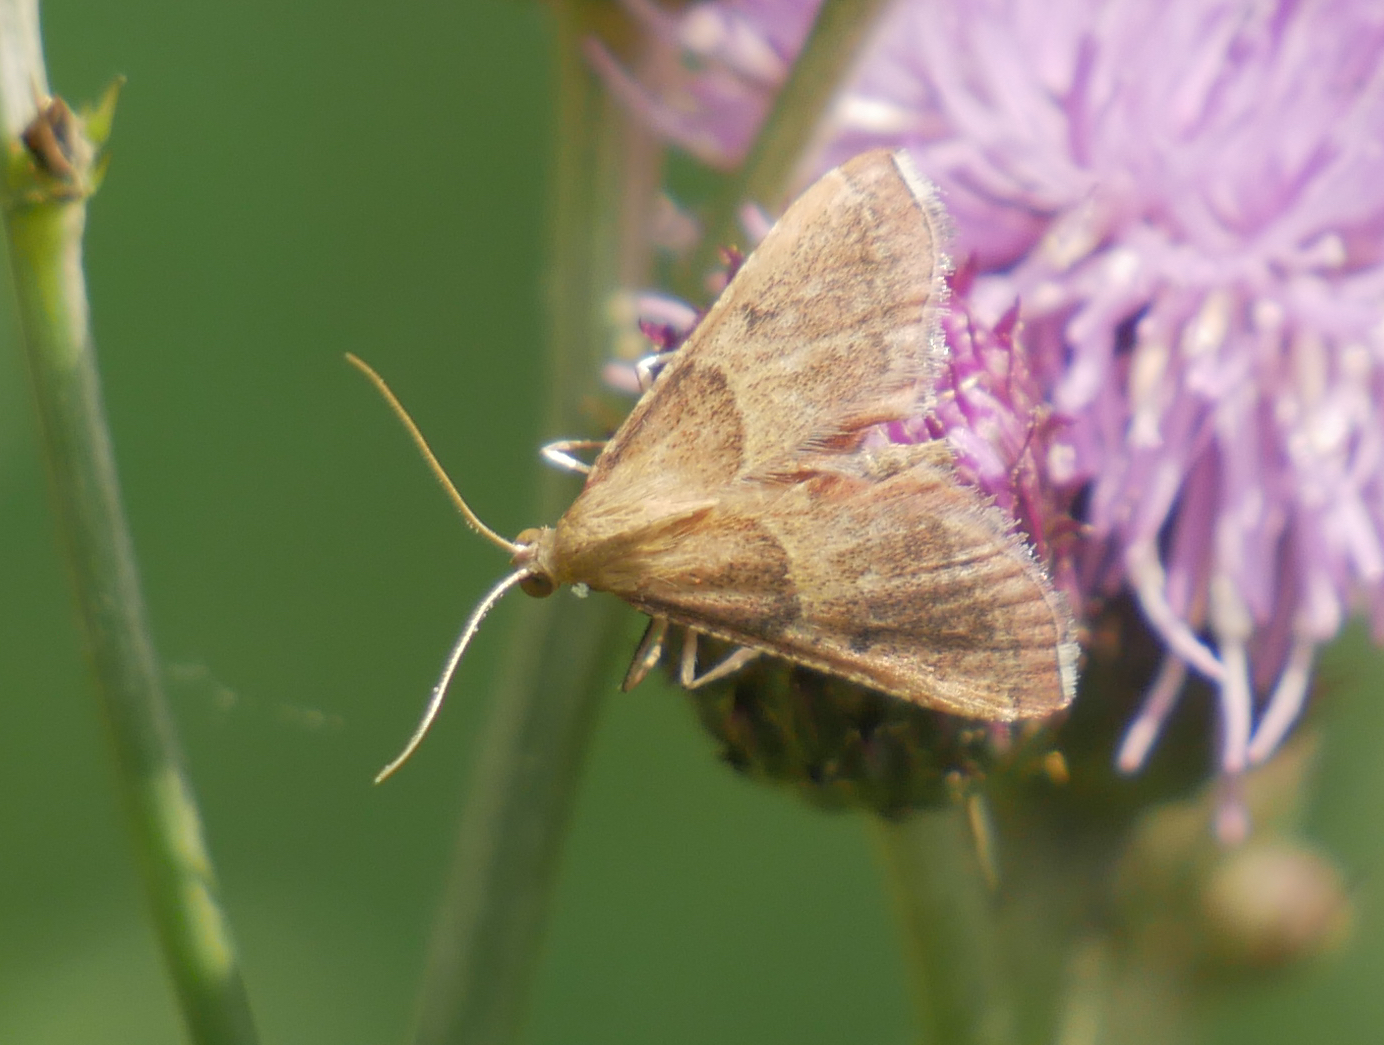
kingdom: Animalia
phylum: Arthropoda
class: Insecta
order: Lepidoptera
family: Pyralidae
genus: Endotricha
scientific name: Endotricha flammealis
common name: Rosy tabby
